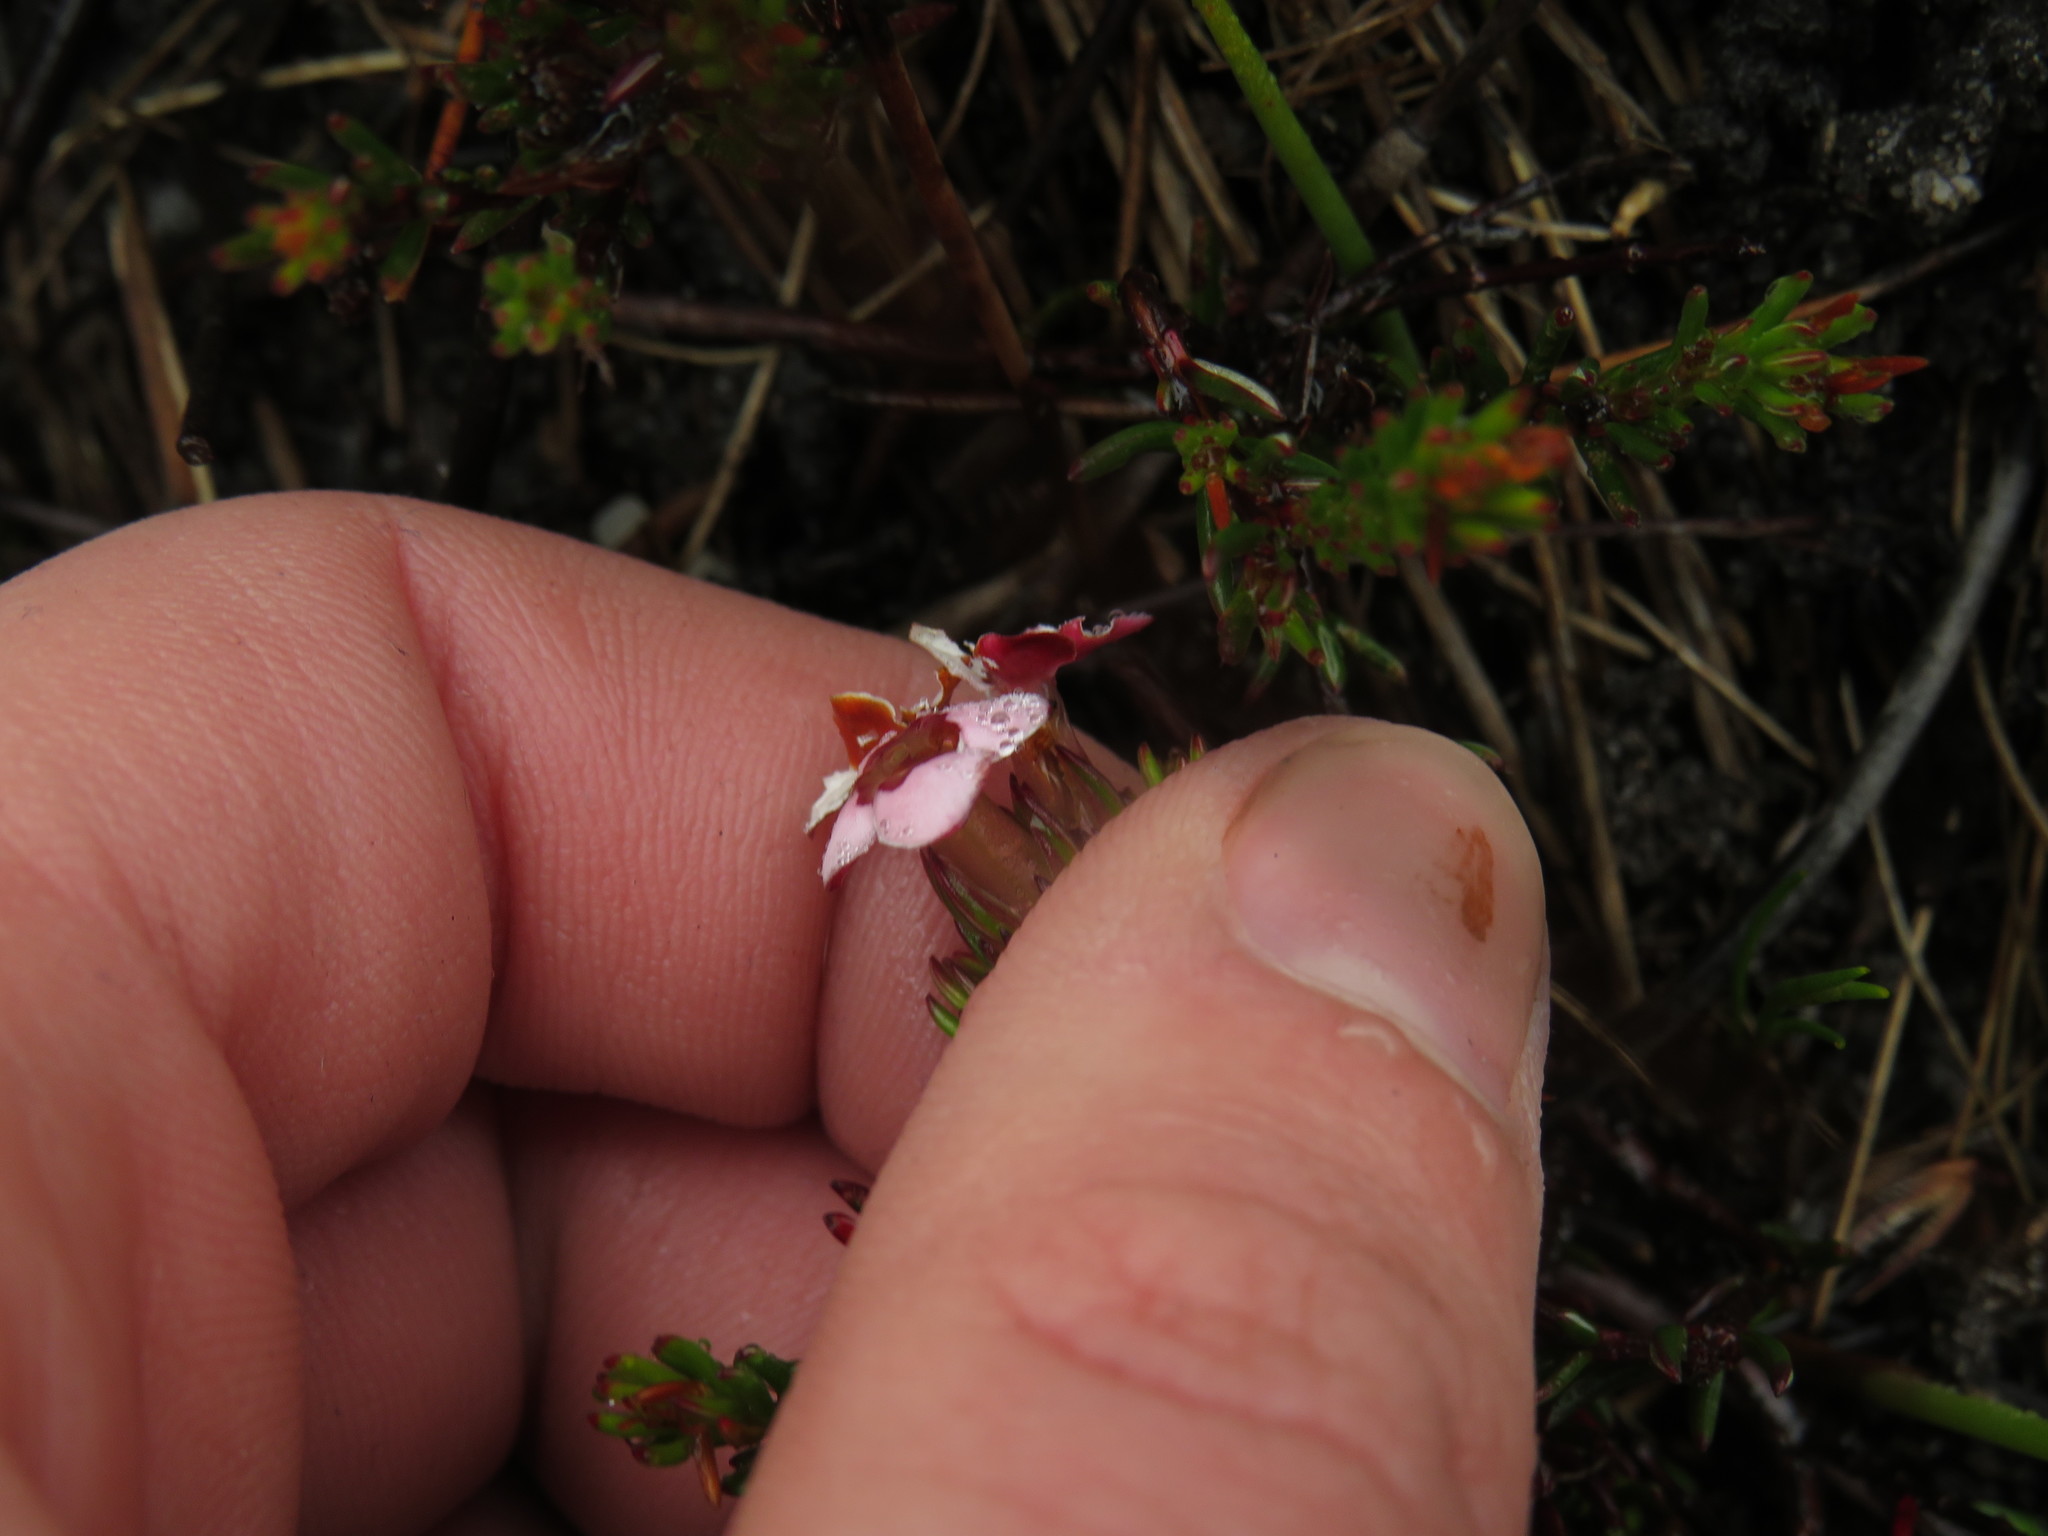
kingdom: Plantae
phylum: Tracheophyta
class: Magnoliopsida
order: Ericales
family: Ericaceae
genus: Erica
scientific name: Erica fastigiata
